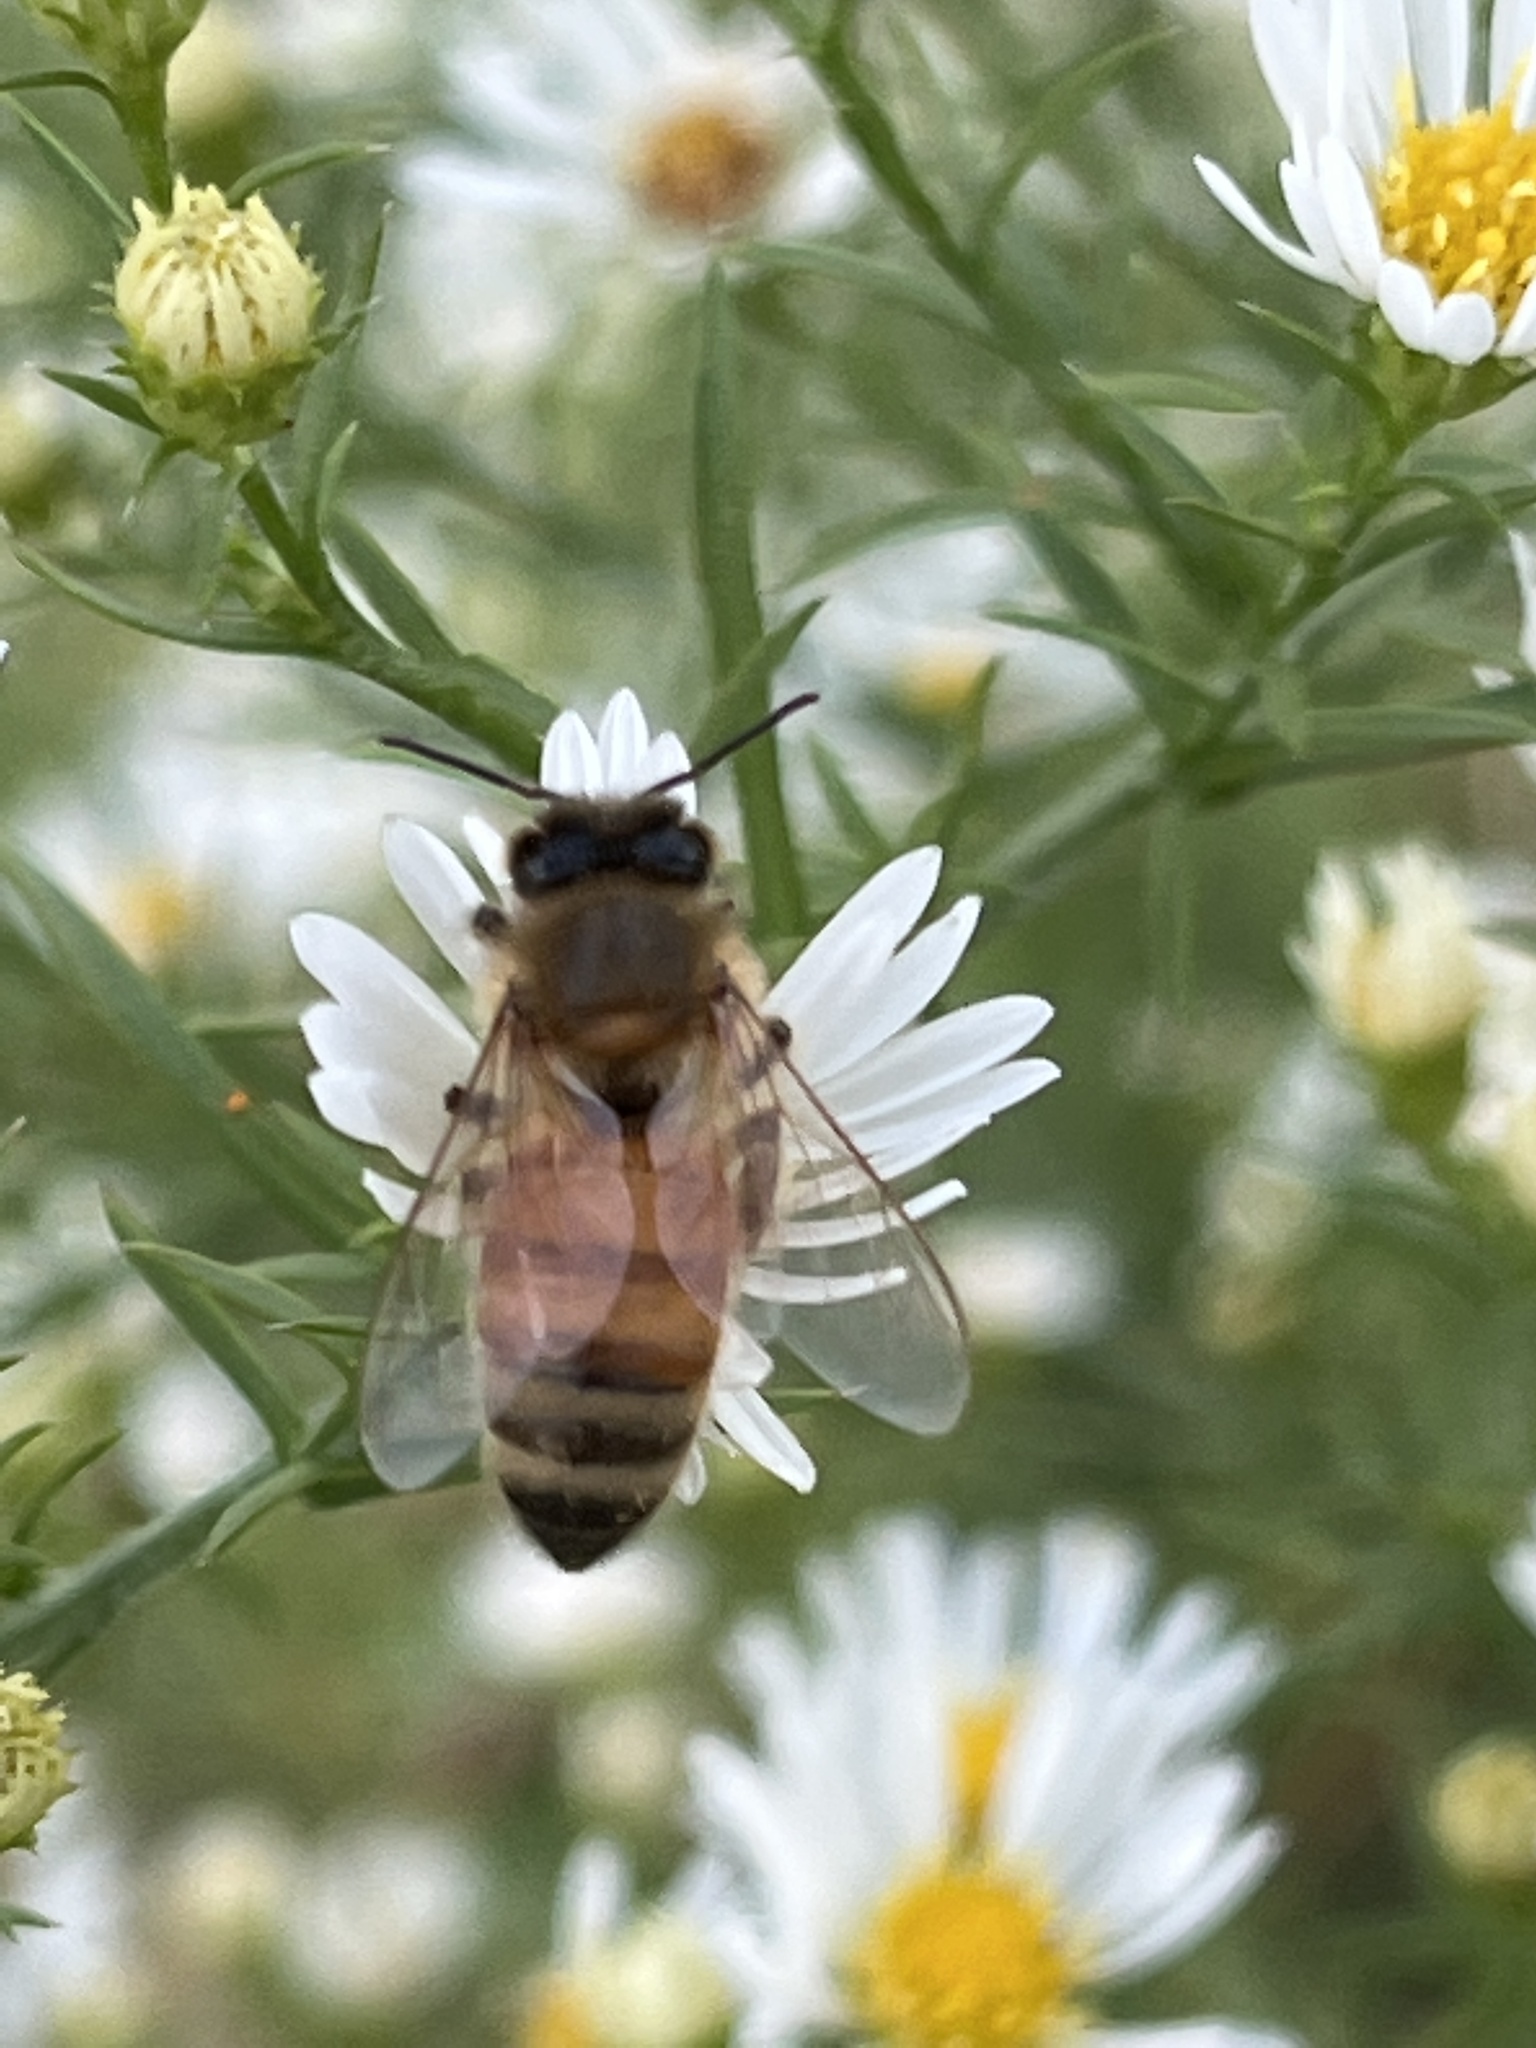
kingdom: Animalia
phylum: Arthropoda
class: Insecta
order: Hymenoptera
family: Apidae
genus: Apis
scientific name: Apis mellifera
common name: Honey bee
